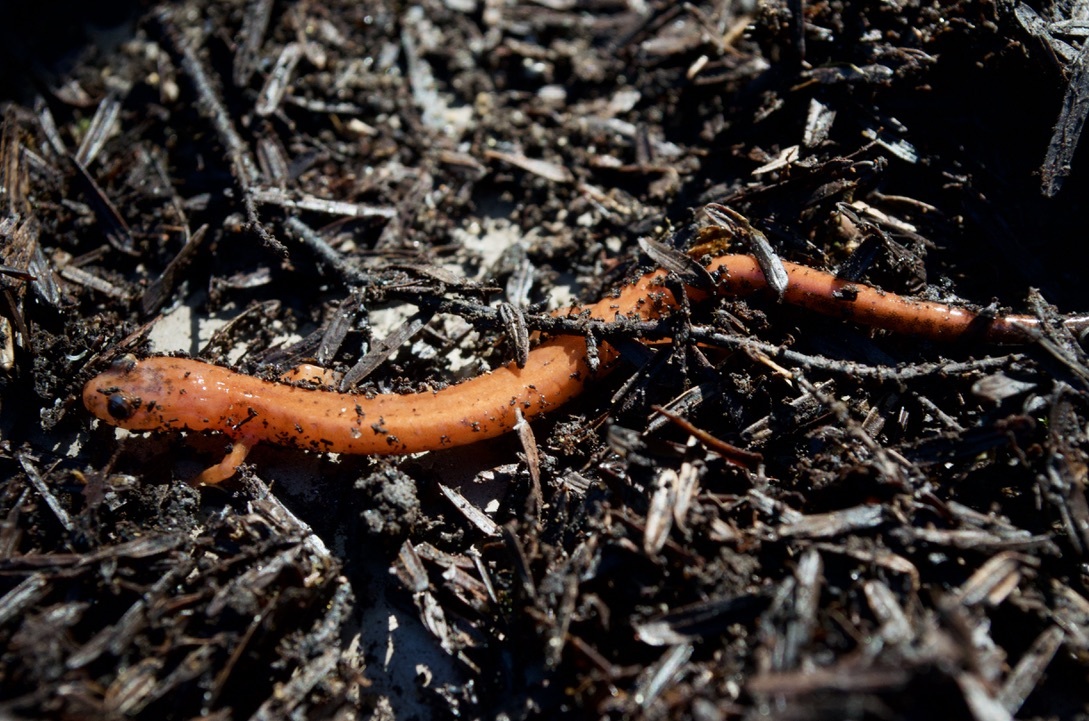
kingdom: Animalia
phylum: Chordata
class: Amphibia
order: Caudata
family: Plethodontidae
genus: Plethodon
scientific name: Plethodon cinereus
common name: Redback salamander
